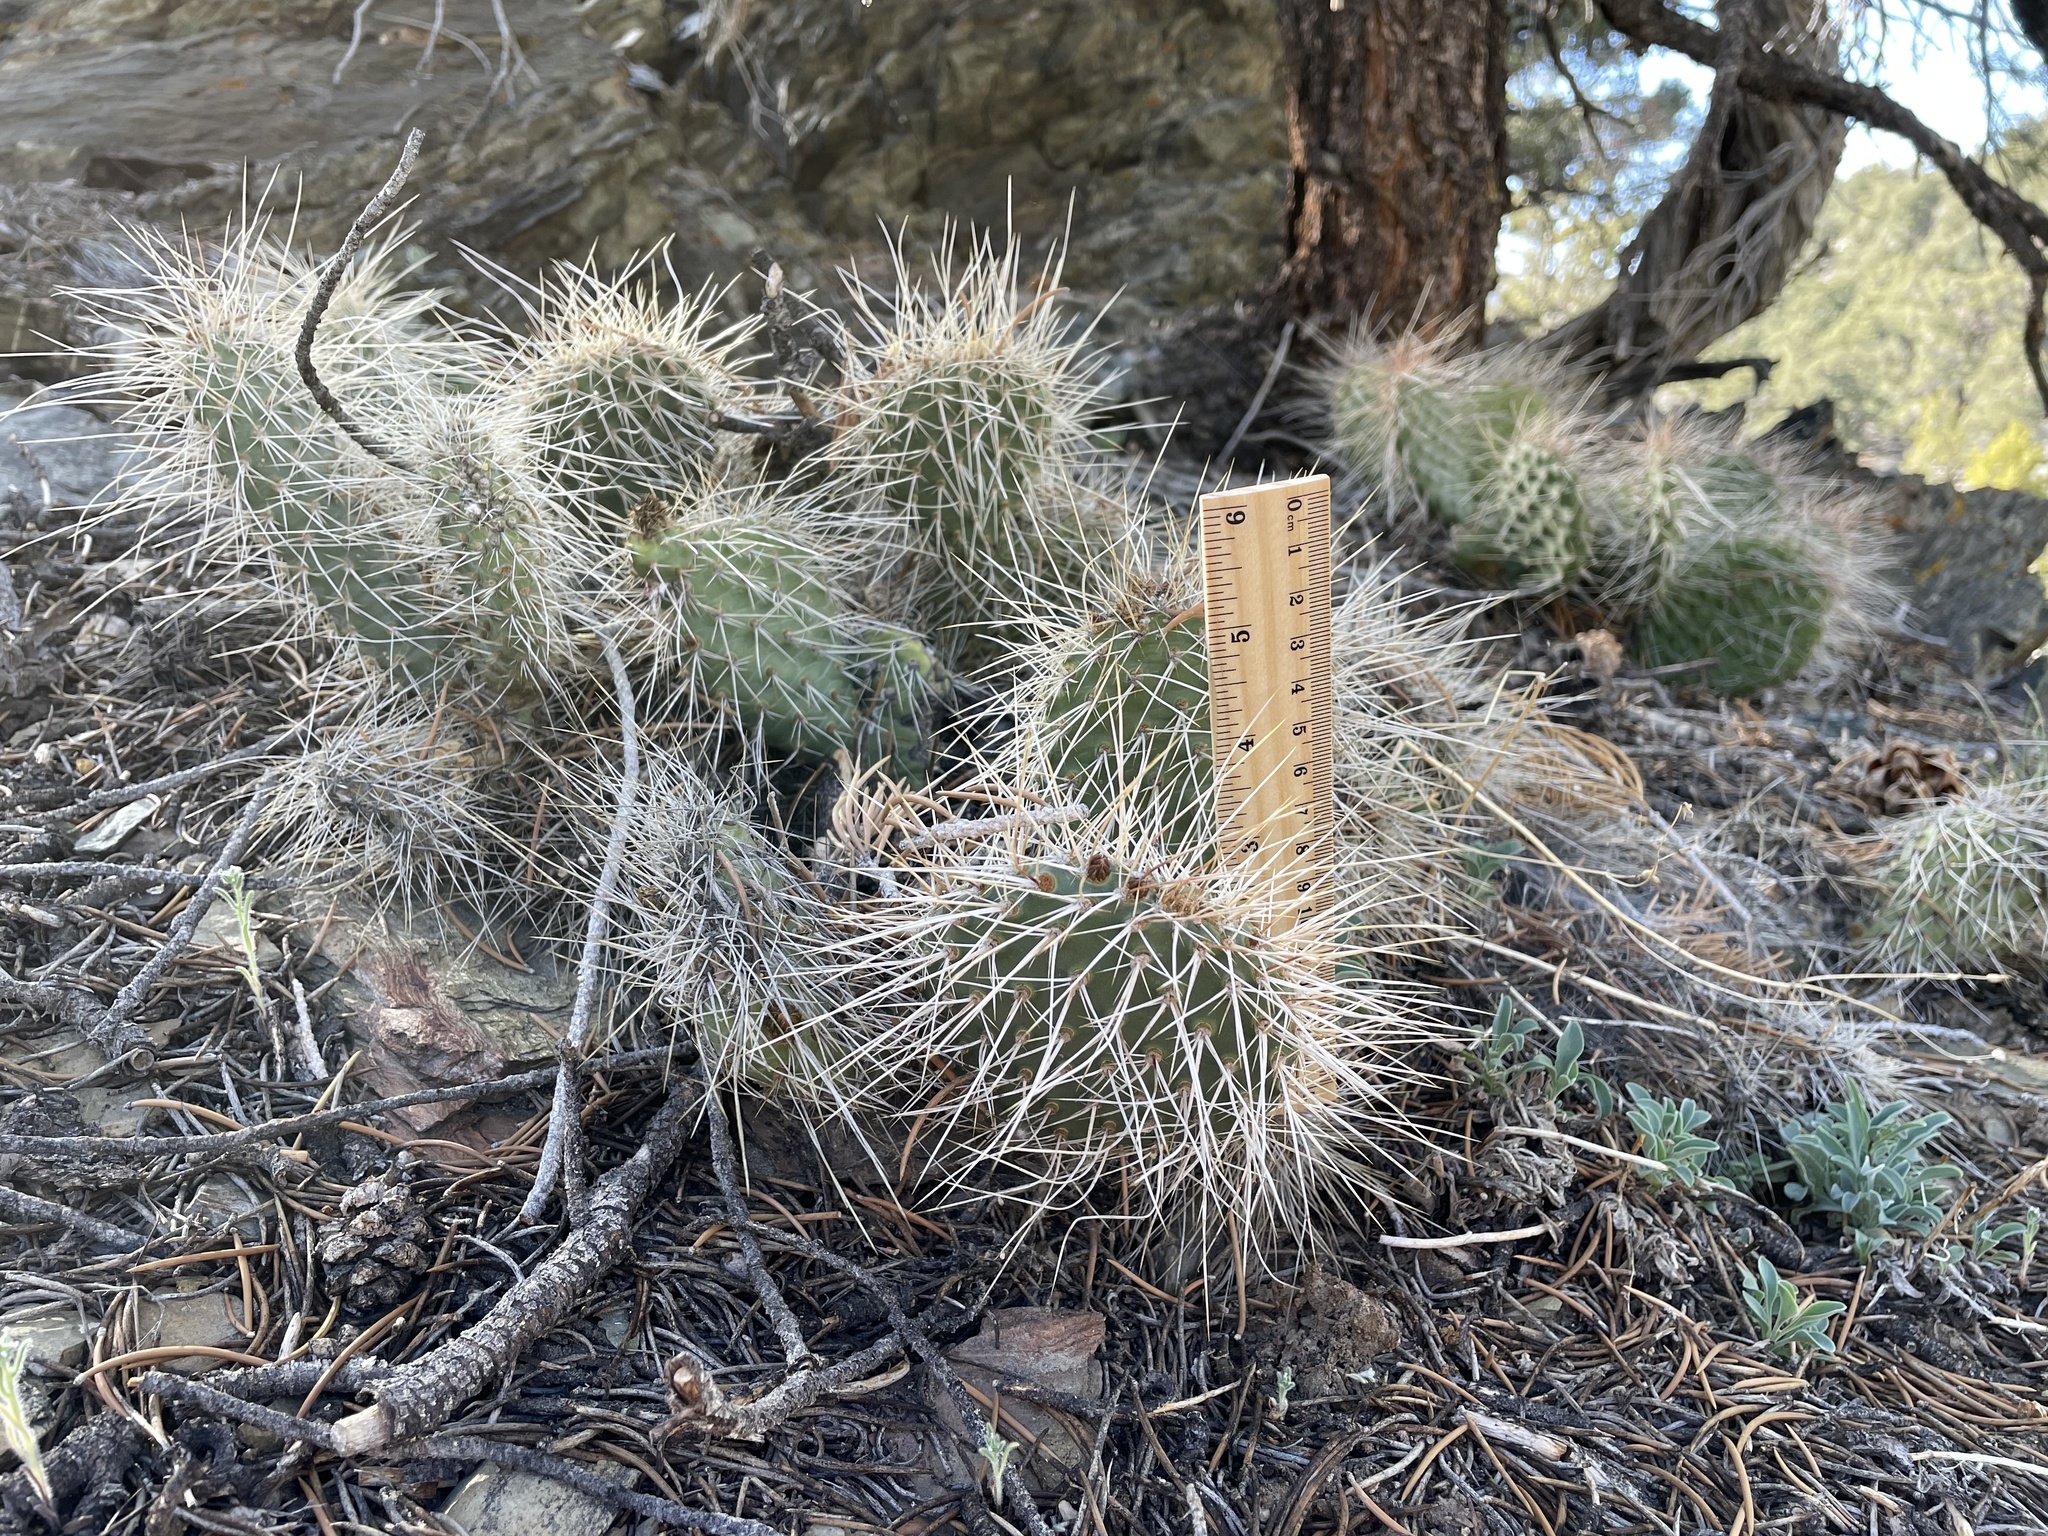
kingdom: Plantae
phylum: Tracheophyta
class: Magnoliopsida
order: Caryophyllales
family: Cactaceae
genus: Opuntia
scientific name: Opuntia polyacantha
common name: Plains prickly-pear
